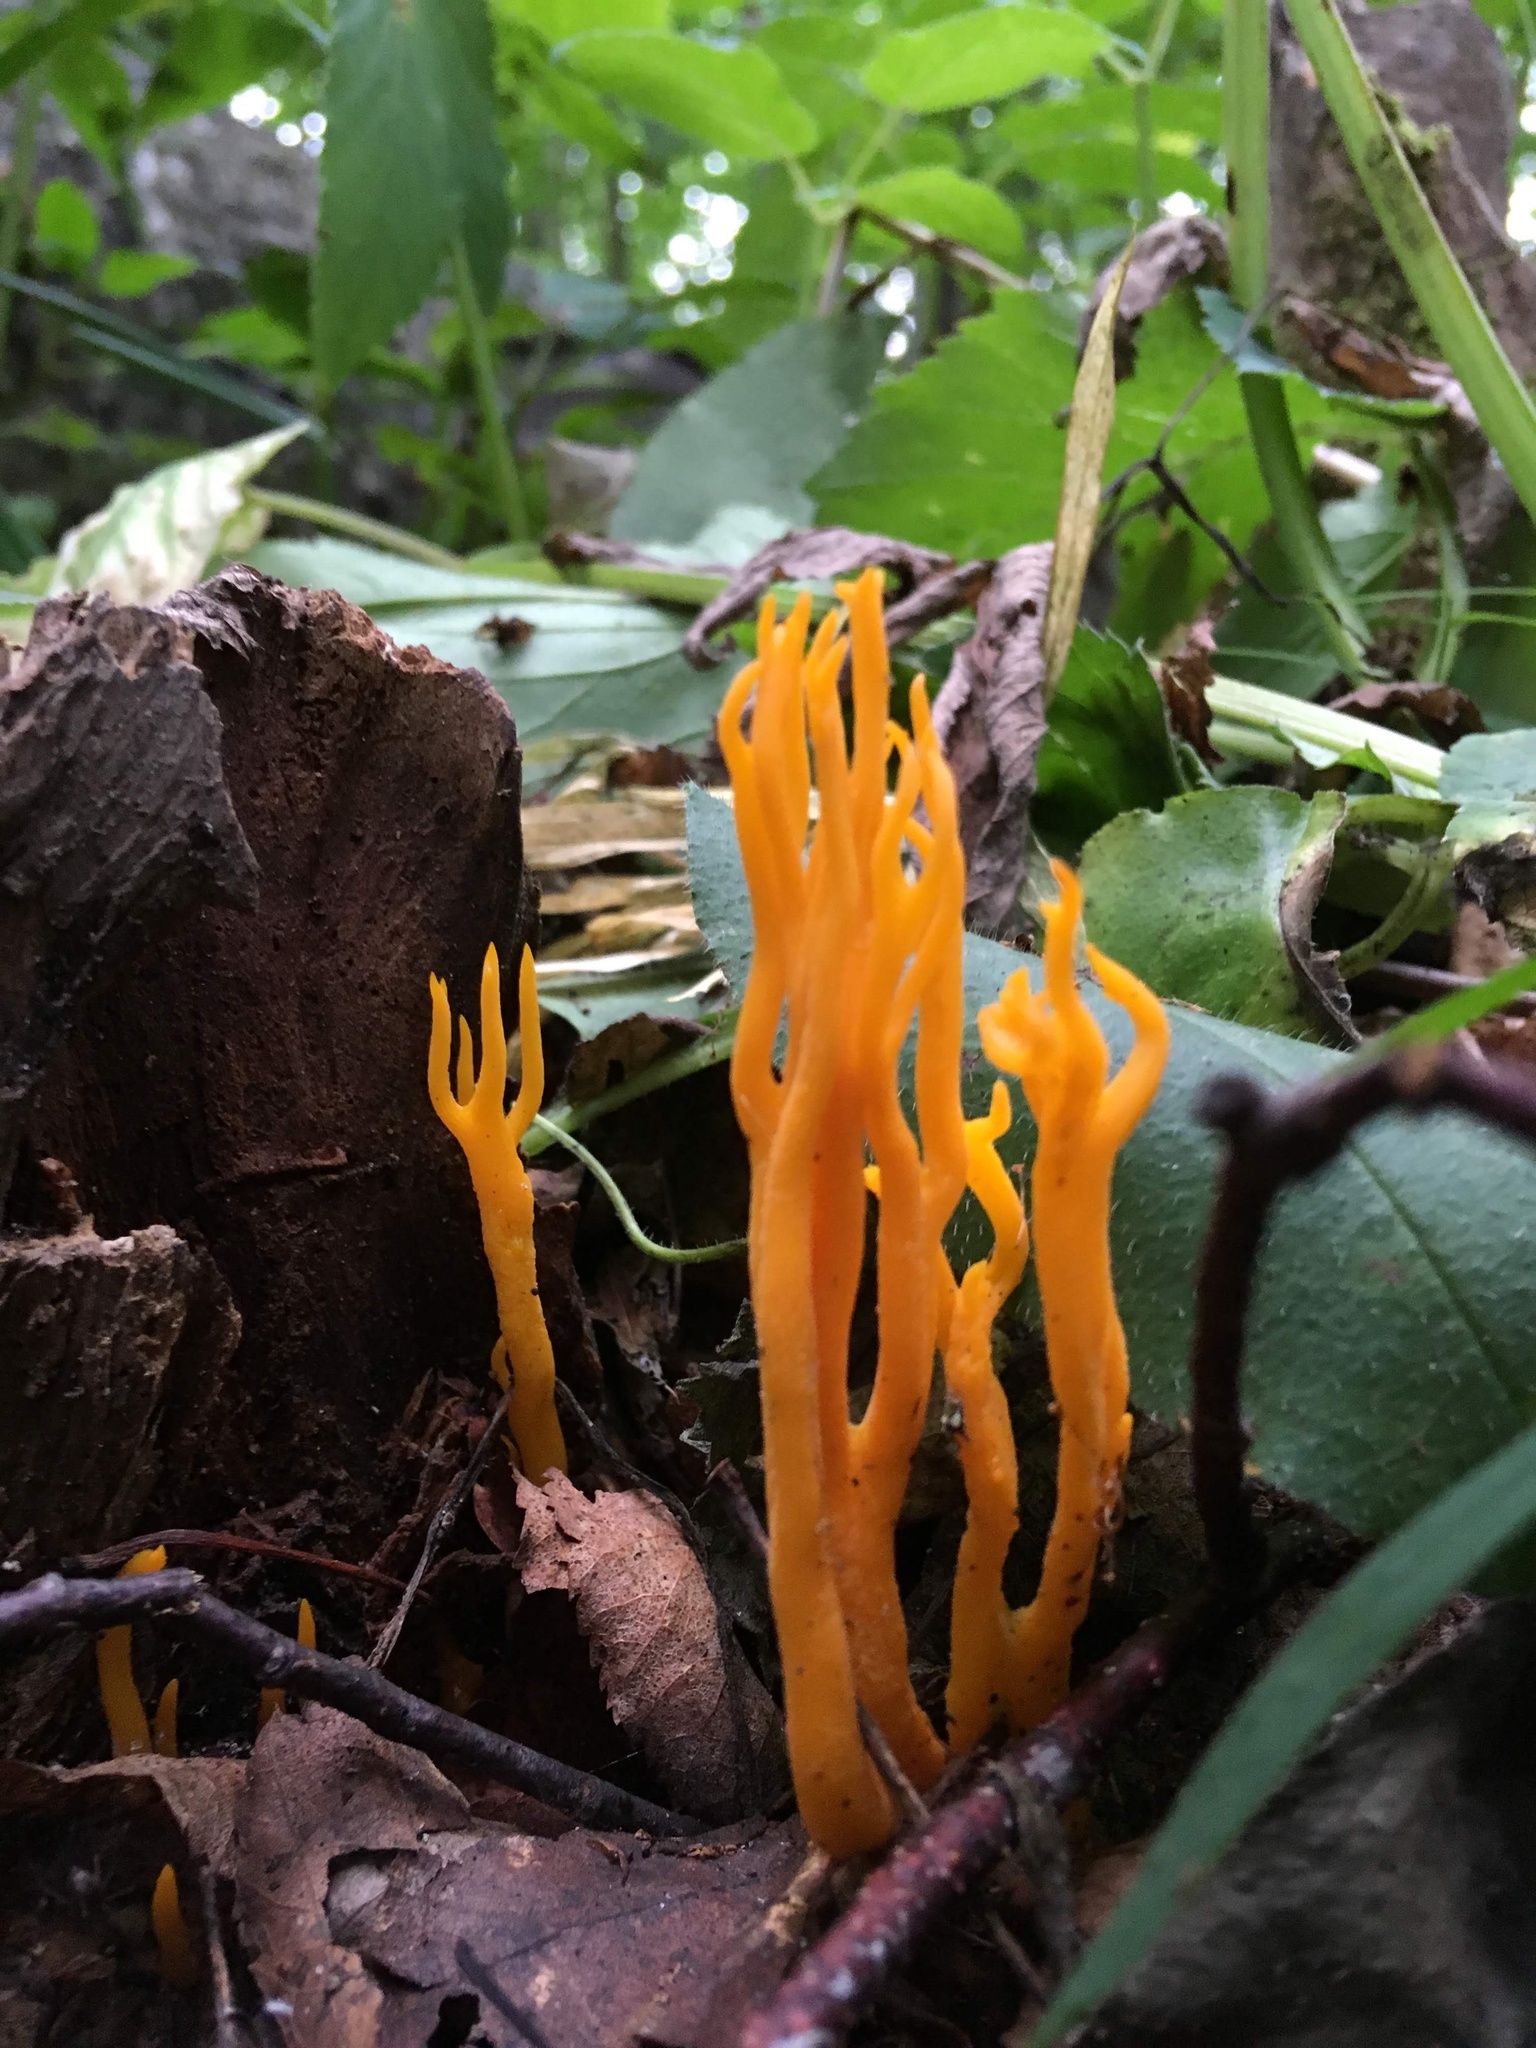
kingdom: Fungi
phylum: Basidiomycota
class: Dacrymycetes
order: Dacrymycetales
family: Dacrymycetaceae
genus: Calocera
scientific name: Calocera viscosa
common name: Yellow stagshorn
